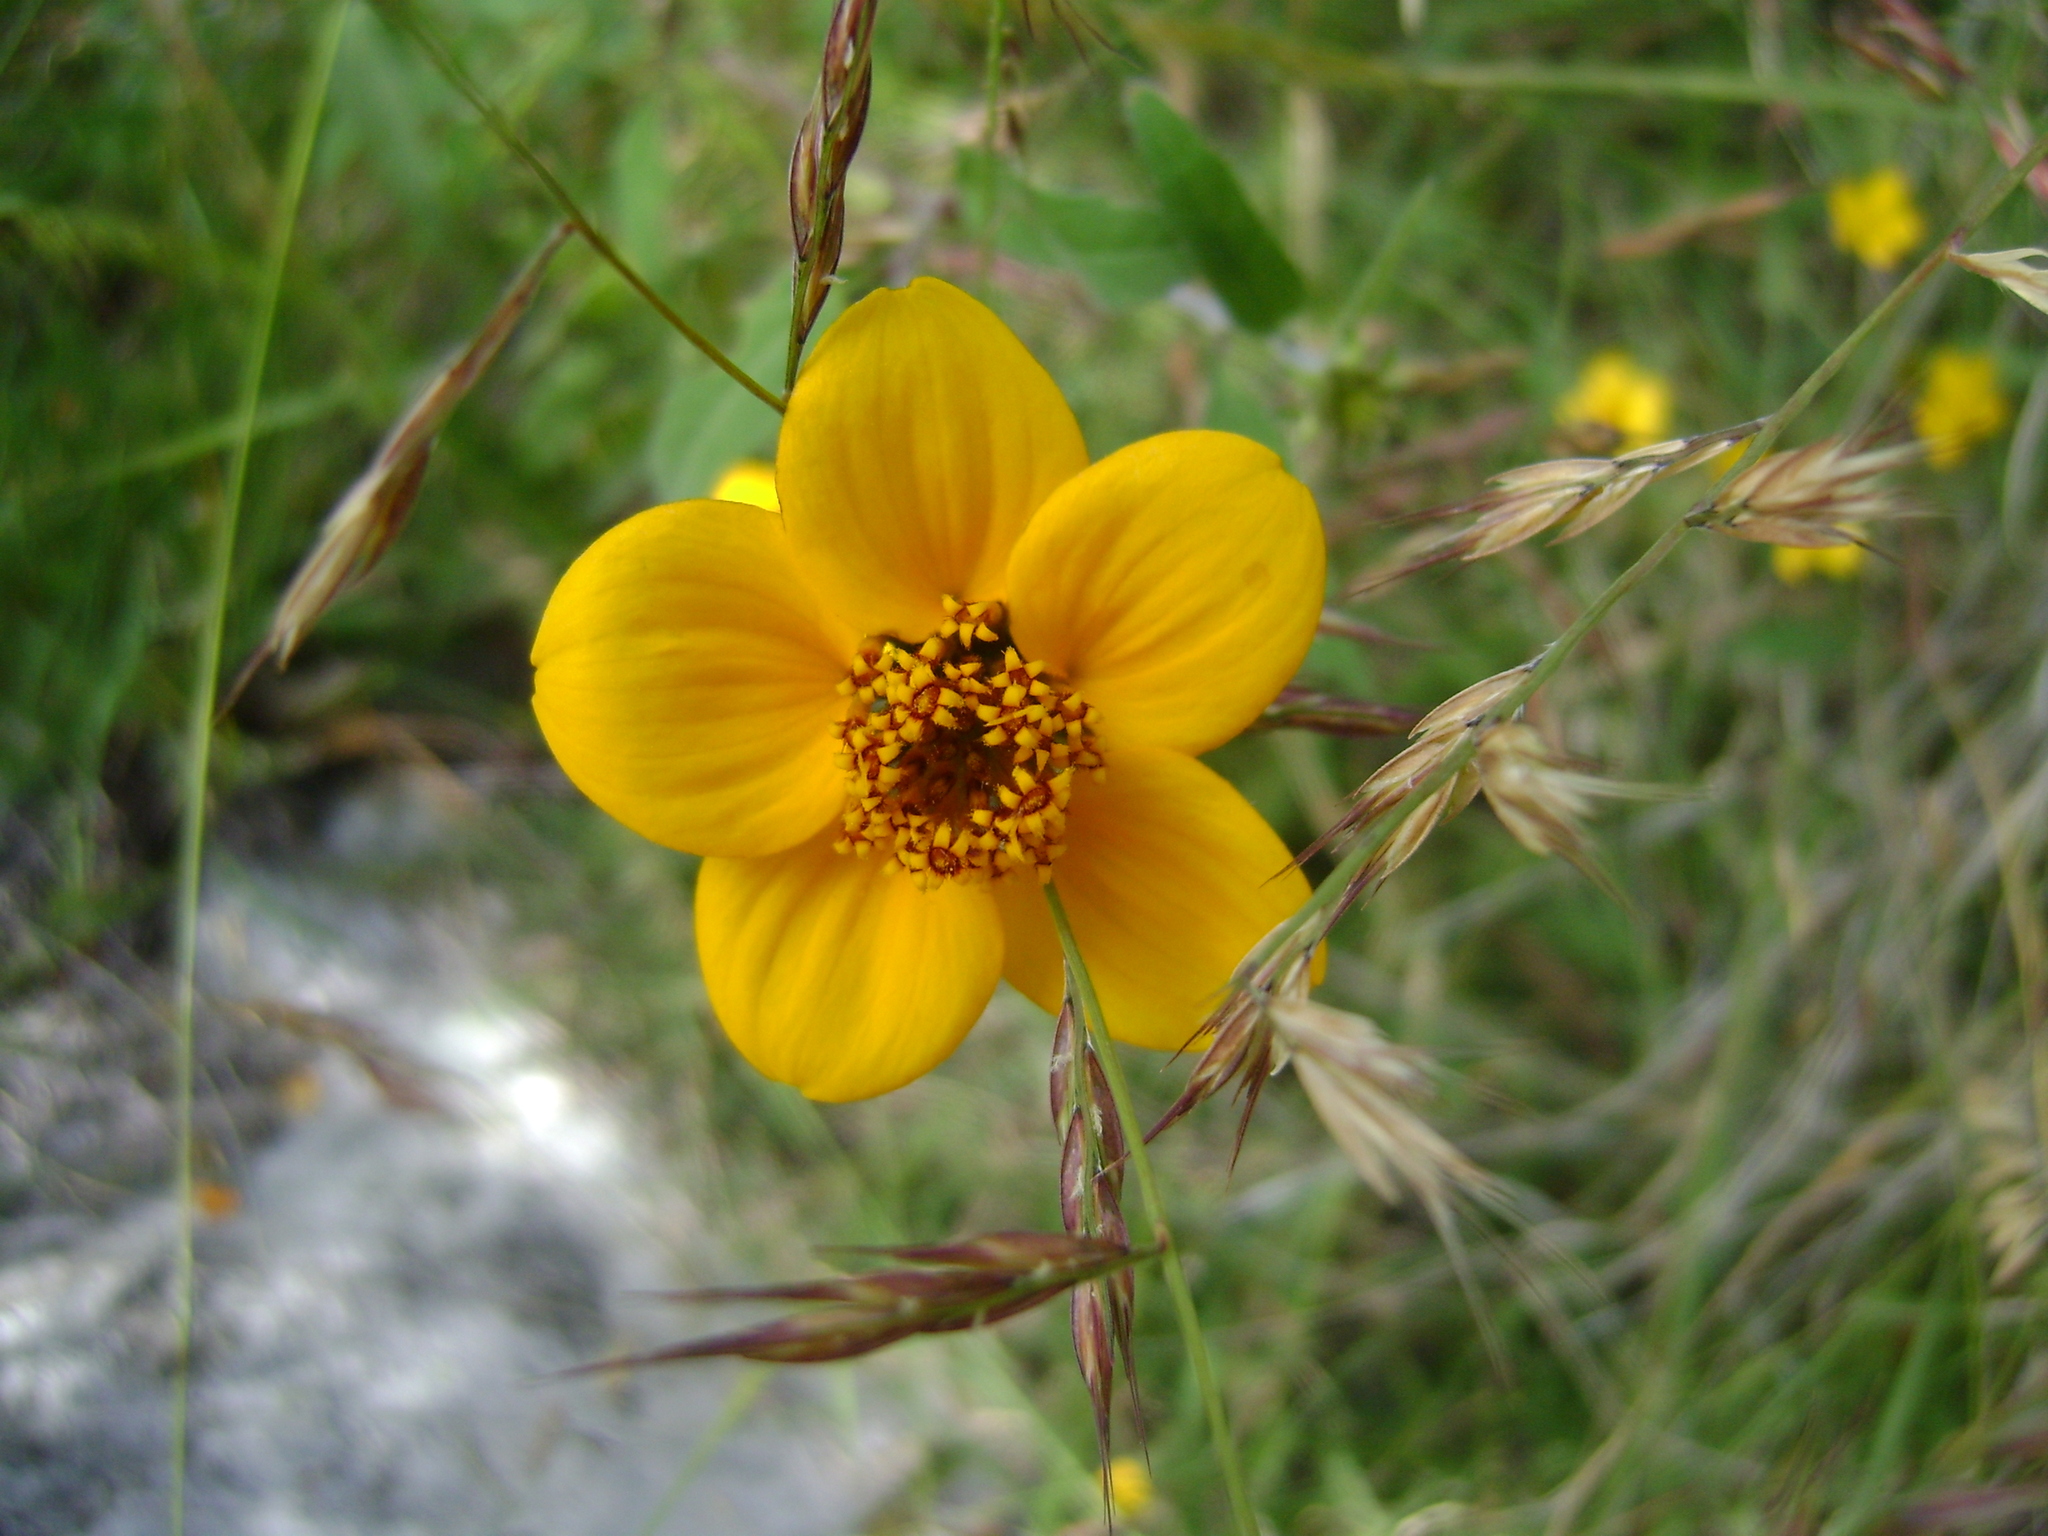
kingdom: Plantae
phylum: Tracheophyta
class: Magnoliopsida
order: Asterales
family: Asteraceae
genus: Sclerocarpus
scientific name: Sclerocarpus uniserialis
